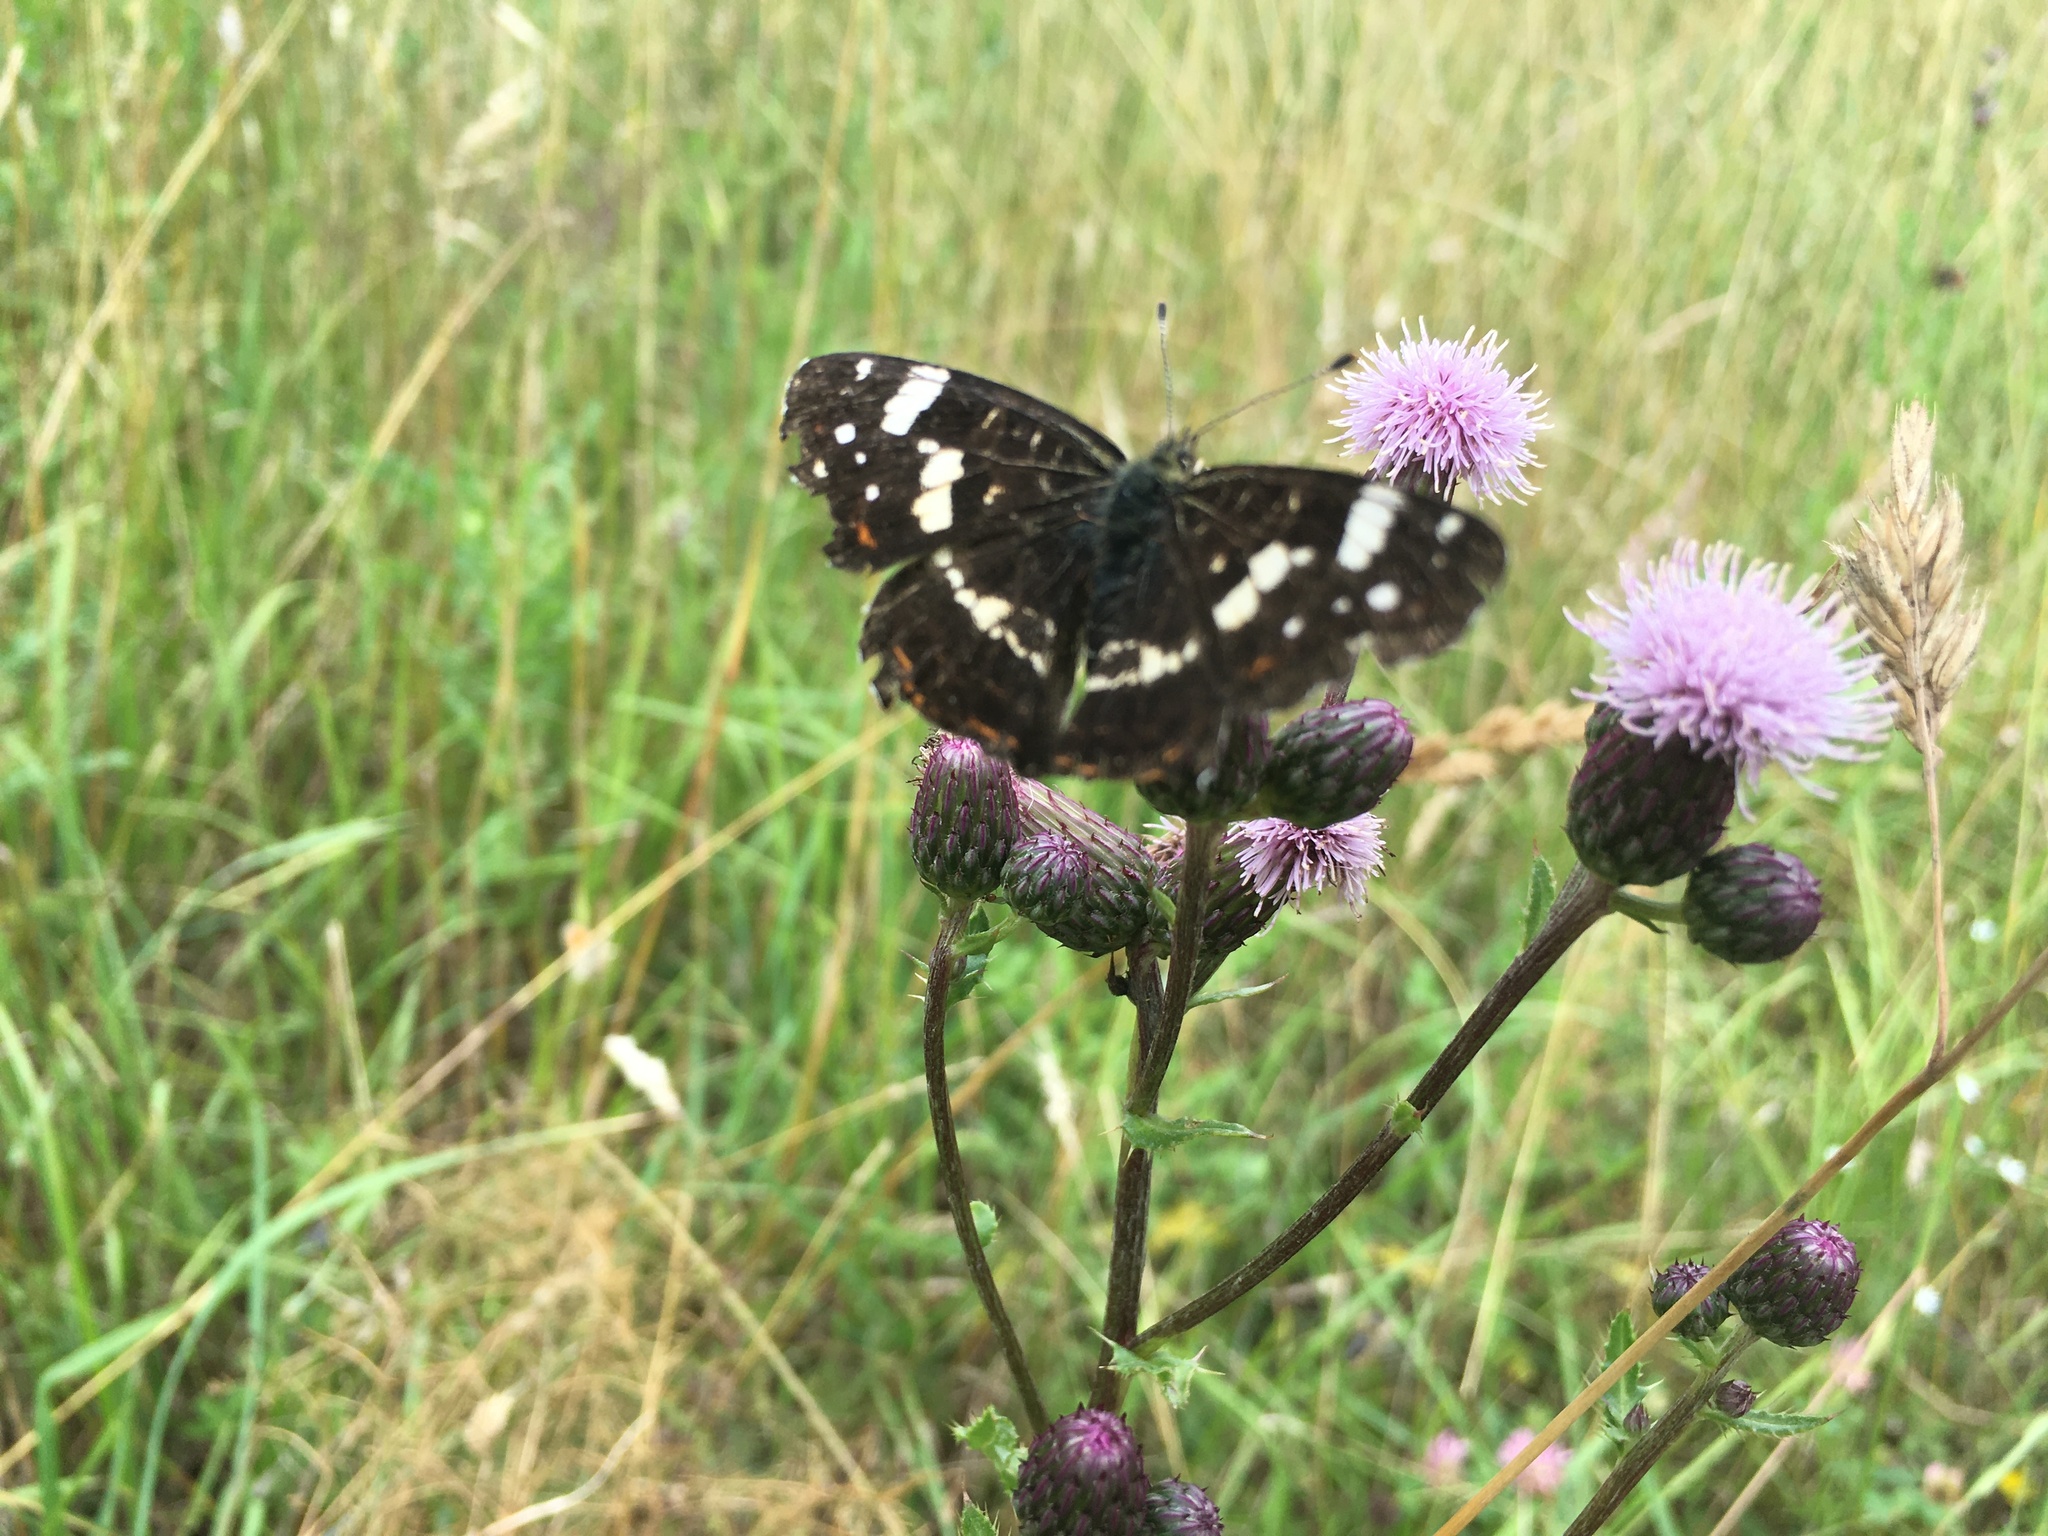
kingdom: Animalia
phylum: Arthropoda
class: Insecta
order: Lepidoptera
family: Nymphalidae
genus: Araschnia
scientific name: Araschnia levana
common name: Map butterfly
